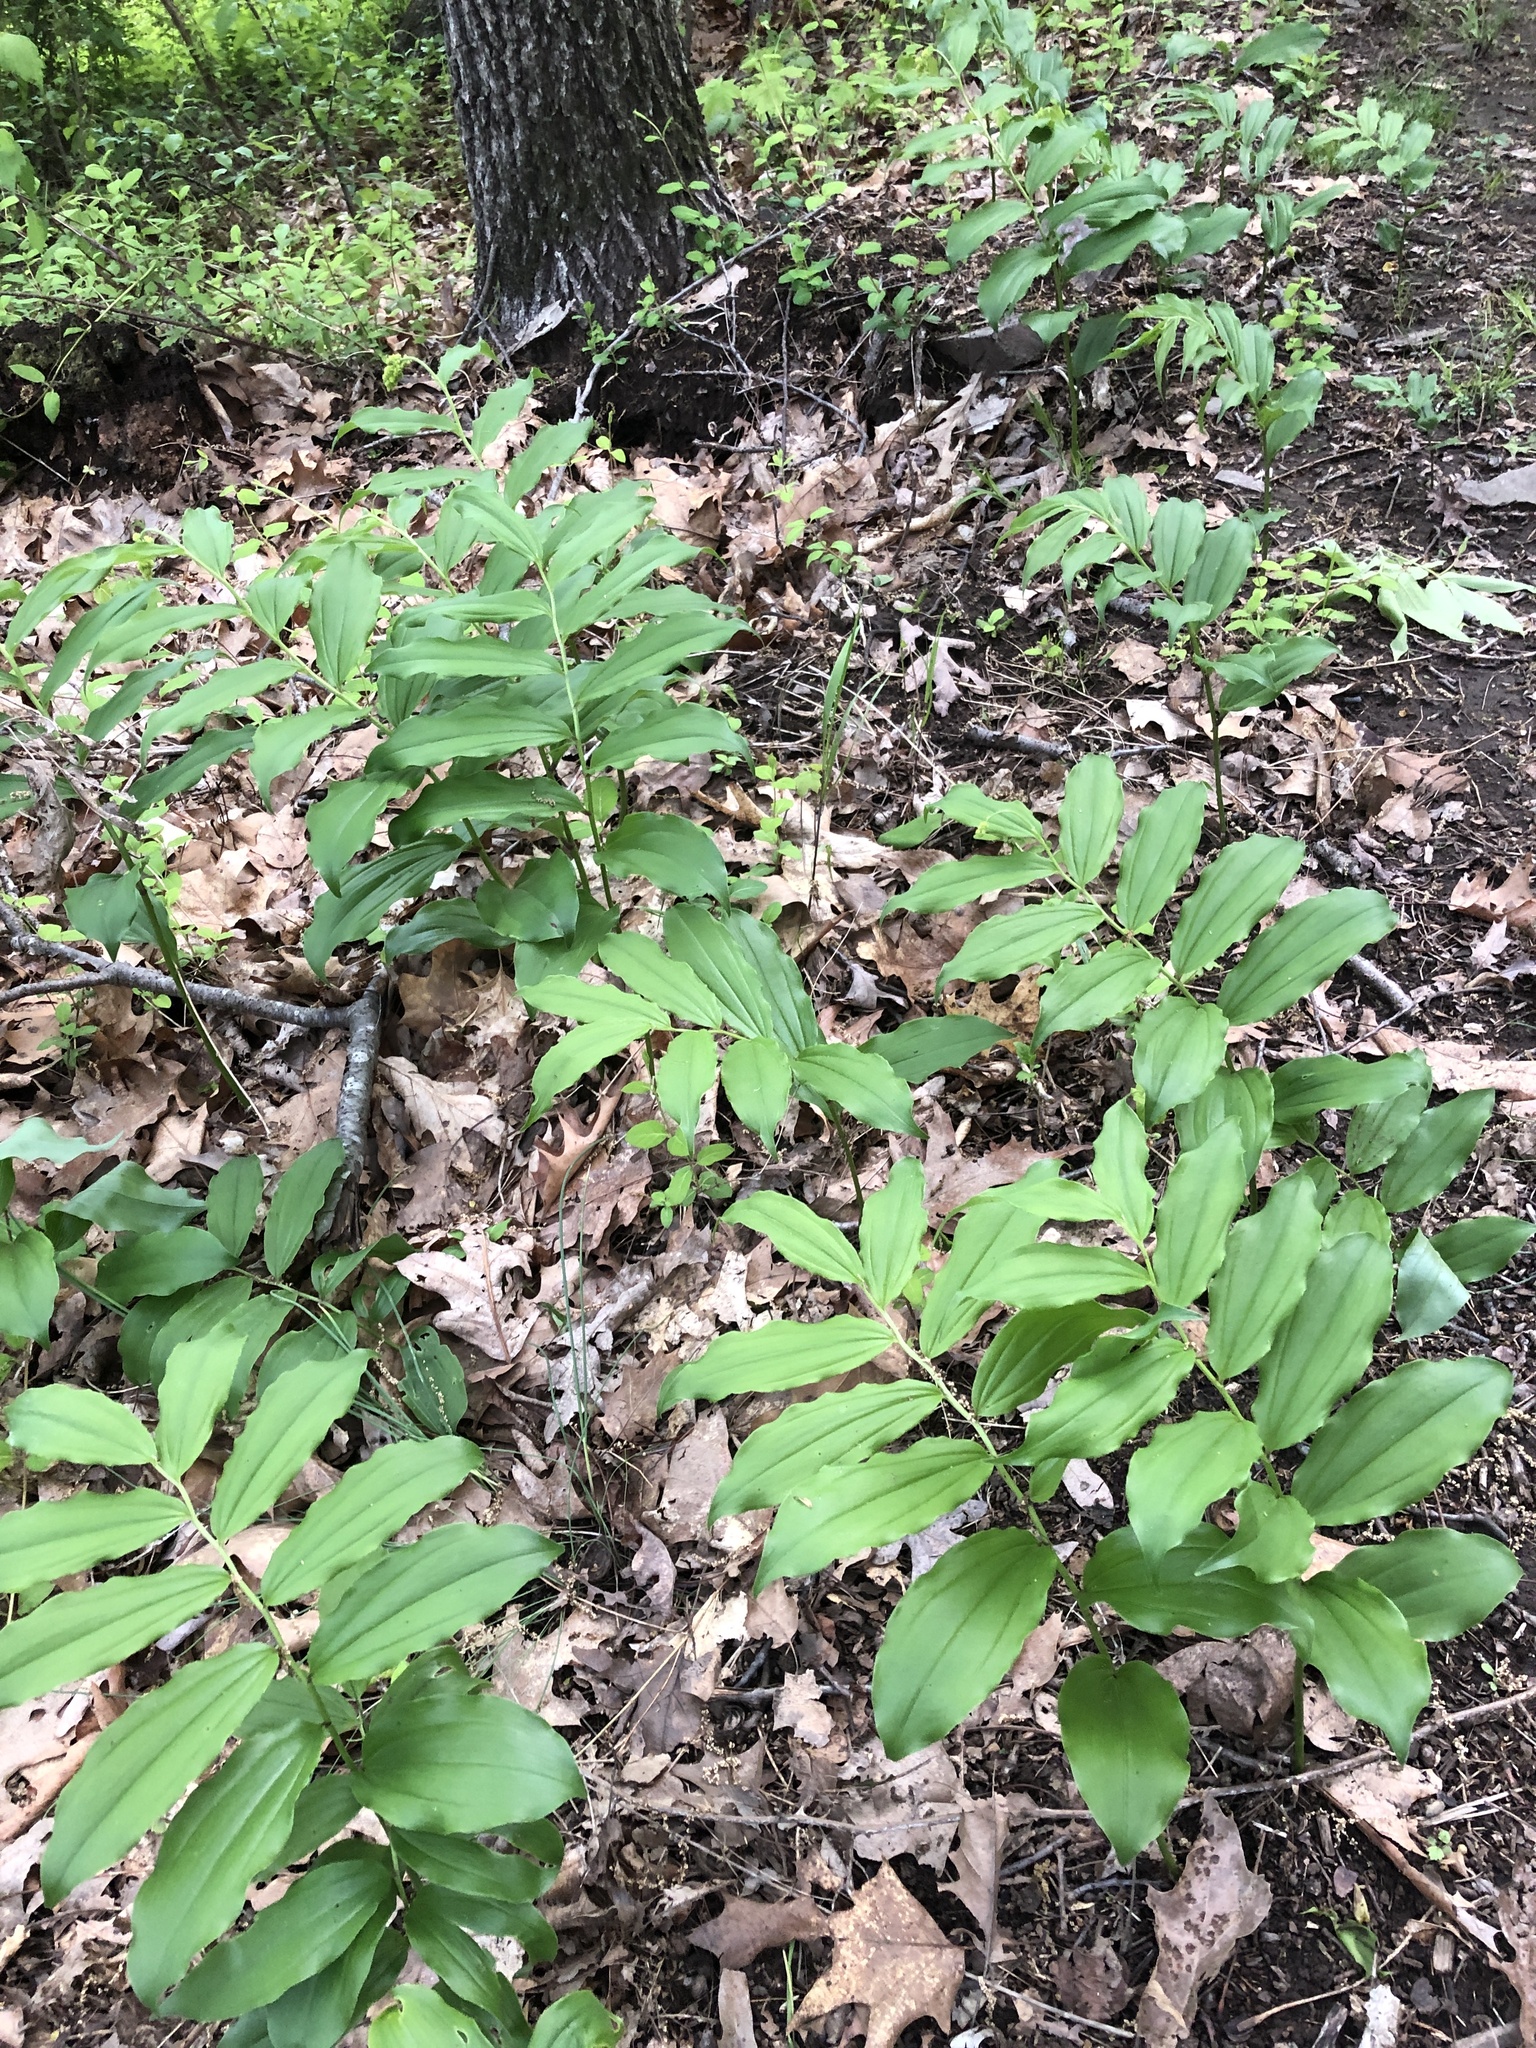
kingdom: Plantae
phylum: Tracheophyta
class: Liliopsida
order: Asparagales
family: Asparagaceae
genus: Maianthemum
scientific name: Maianthemum racemosum
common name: False spikenard
